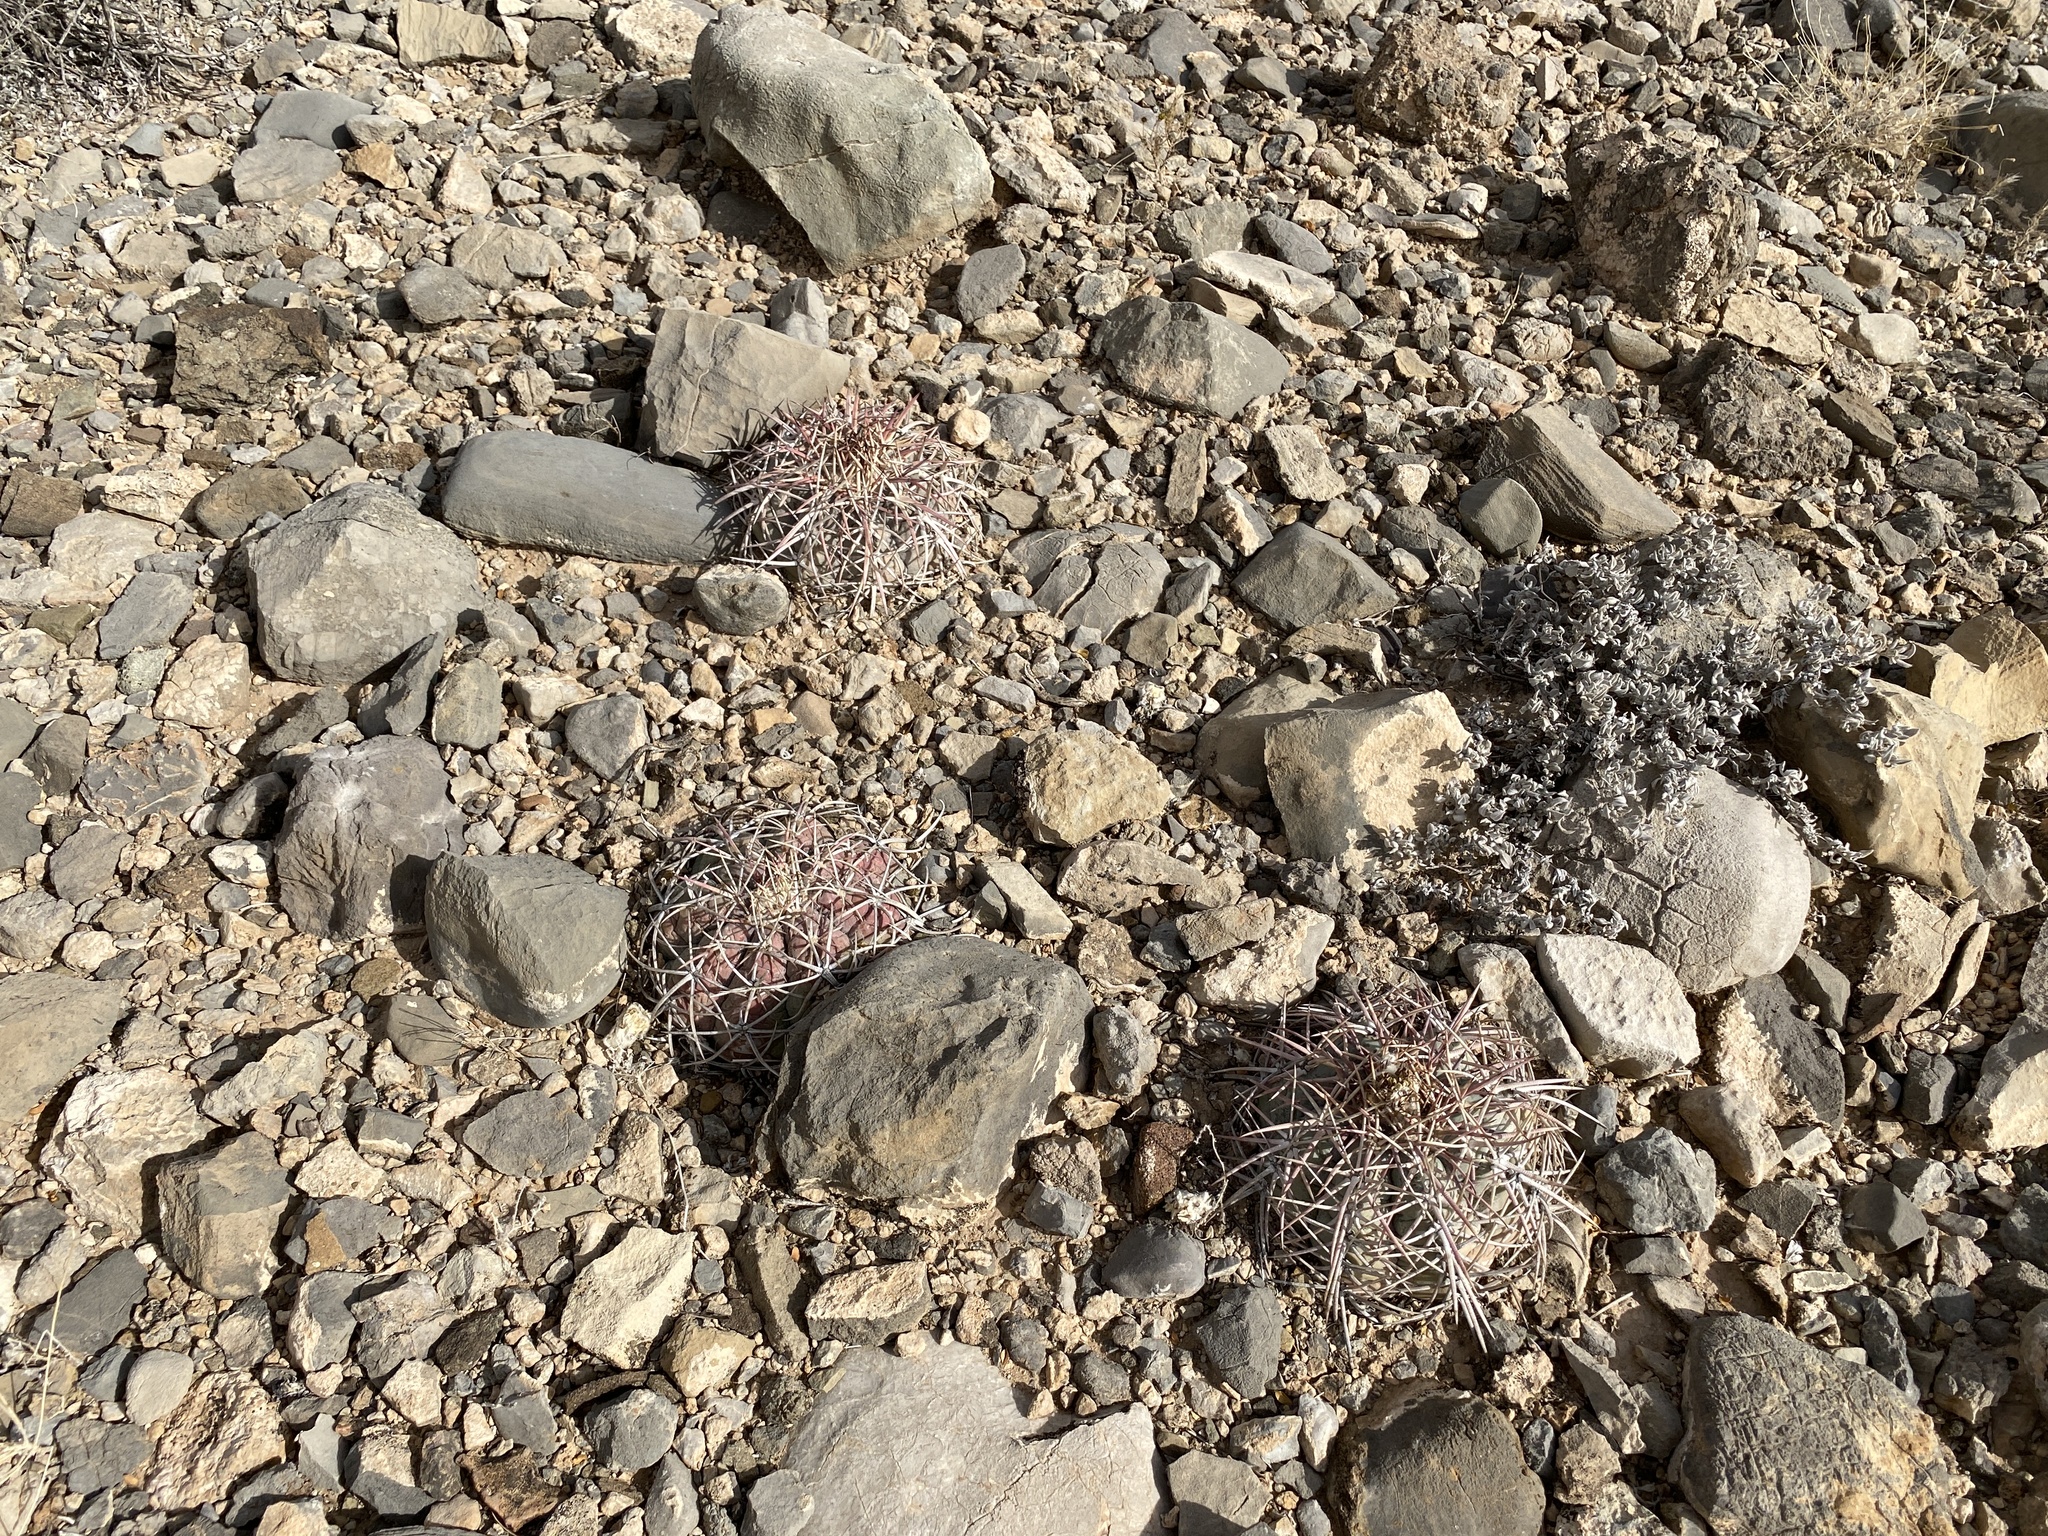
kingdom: Plantae
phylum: Tracheophyta
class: Magnoliopsida
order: Caryophyllales
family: Cactaceae
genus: Echinocactus
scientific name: Echinocactus horizonthalonius
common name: Devilshead
